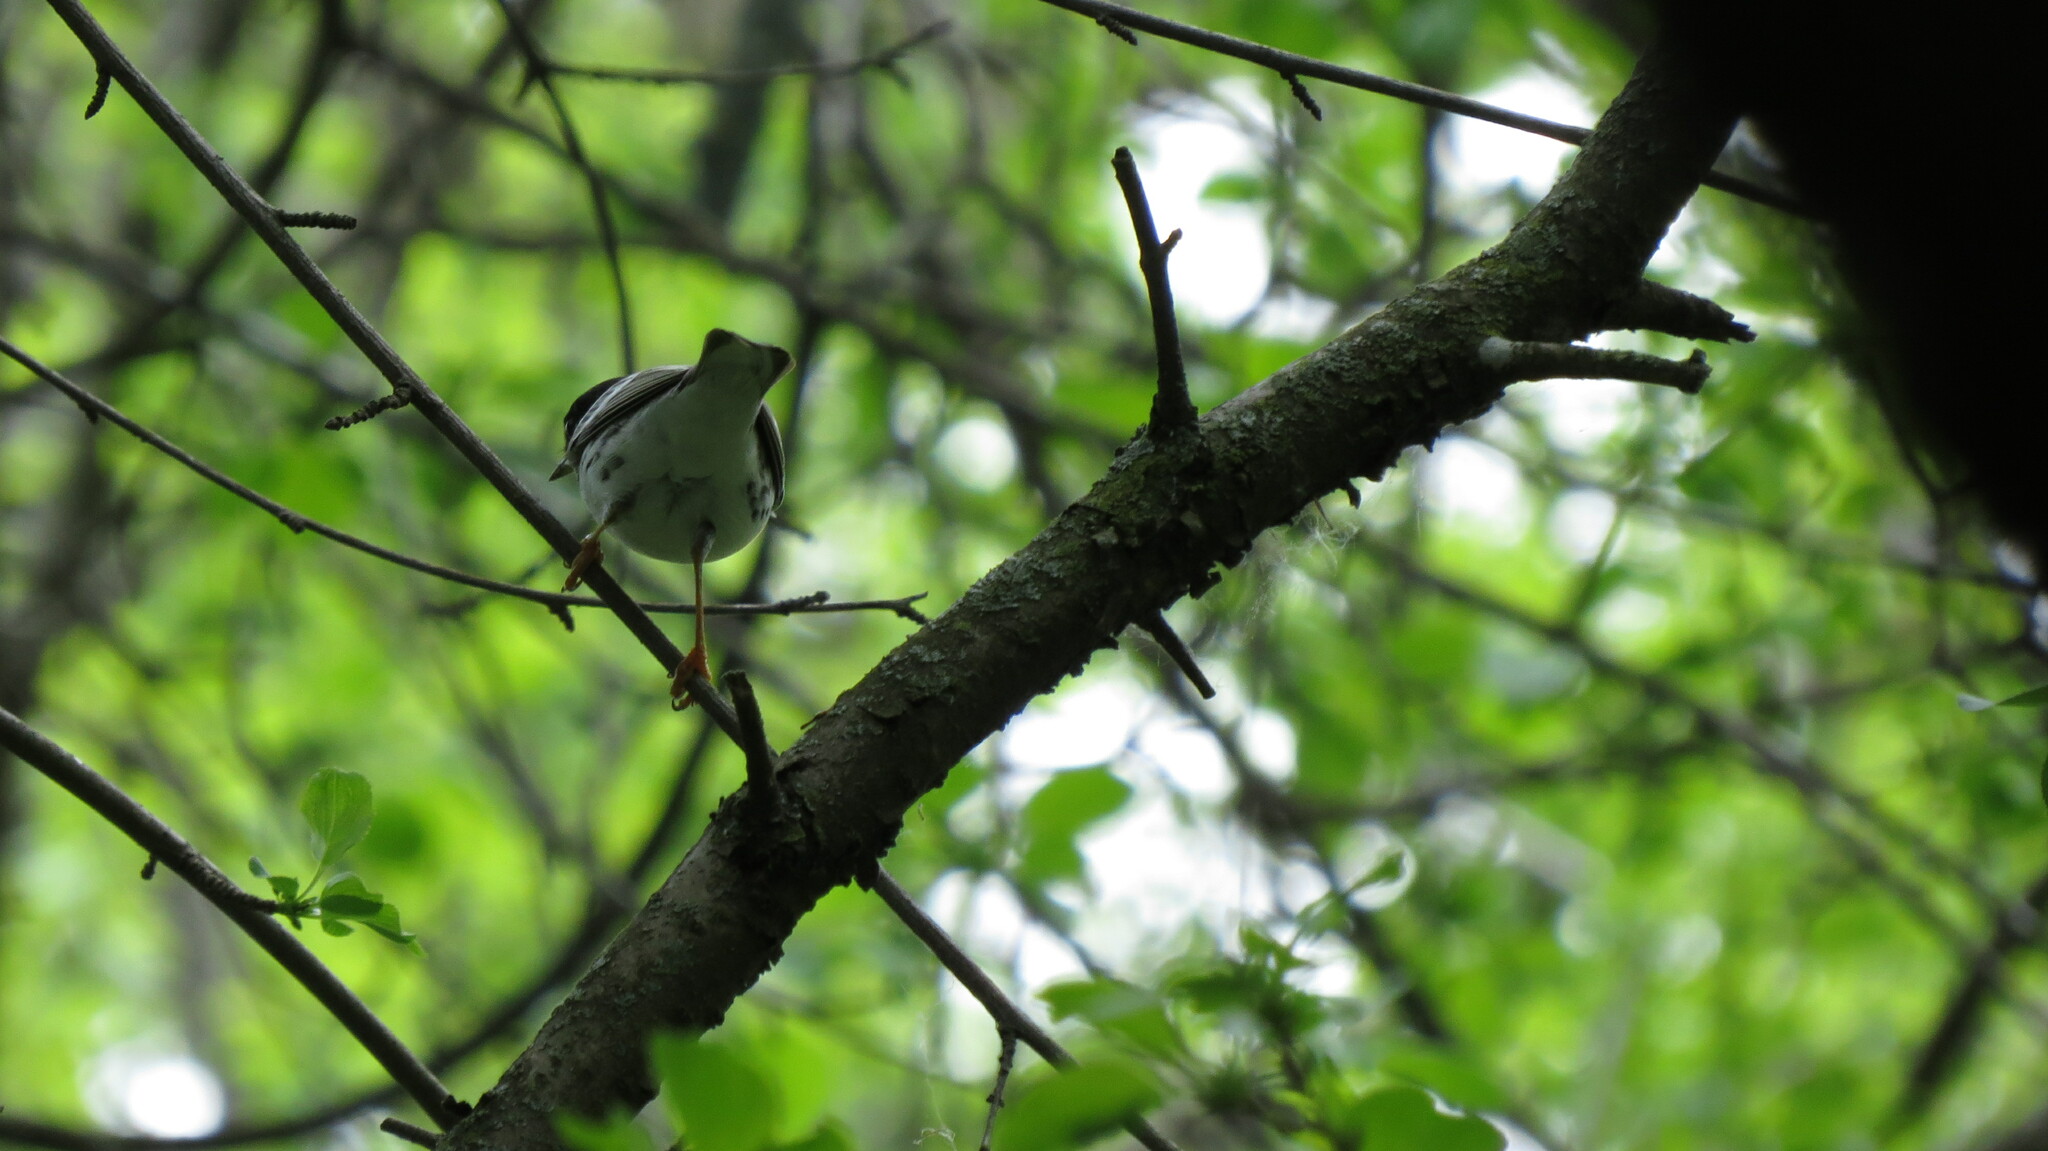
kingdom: Animalia
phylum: Chordata
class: Aves
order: Passeriformes
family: Parulidae
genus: Setophaga
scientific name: Setophaga striata
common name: Blackpoll warbler
